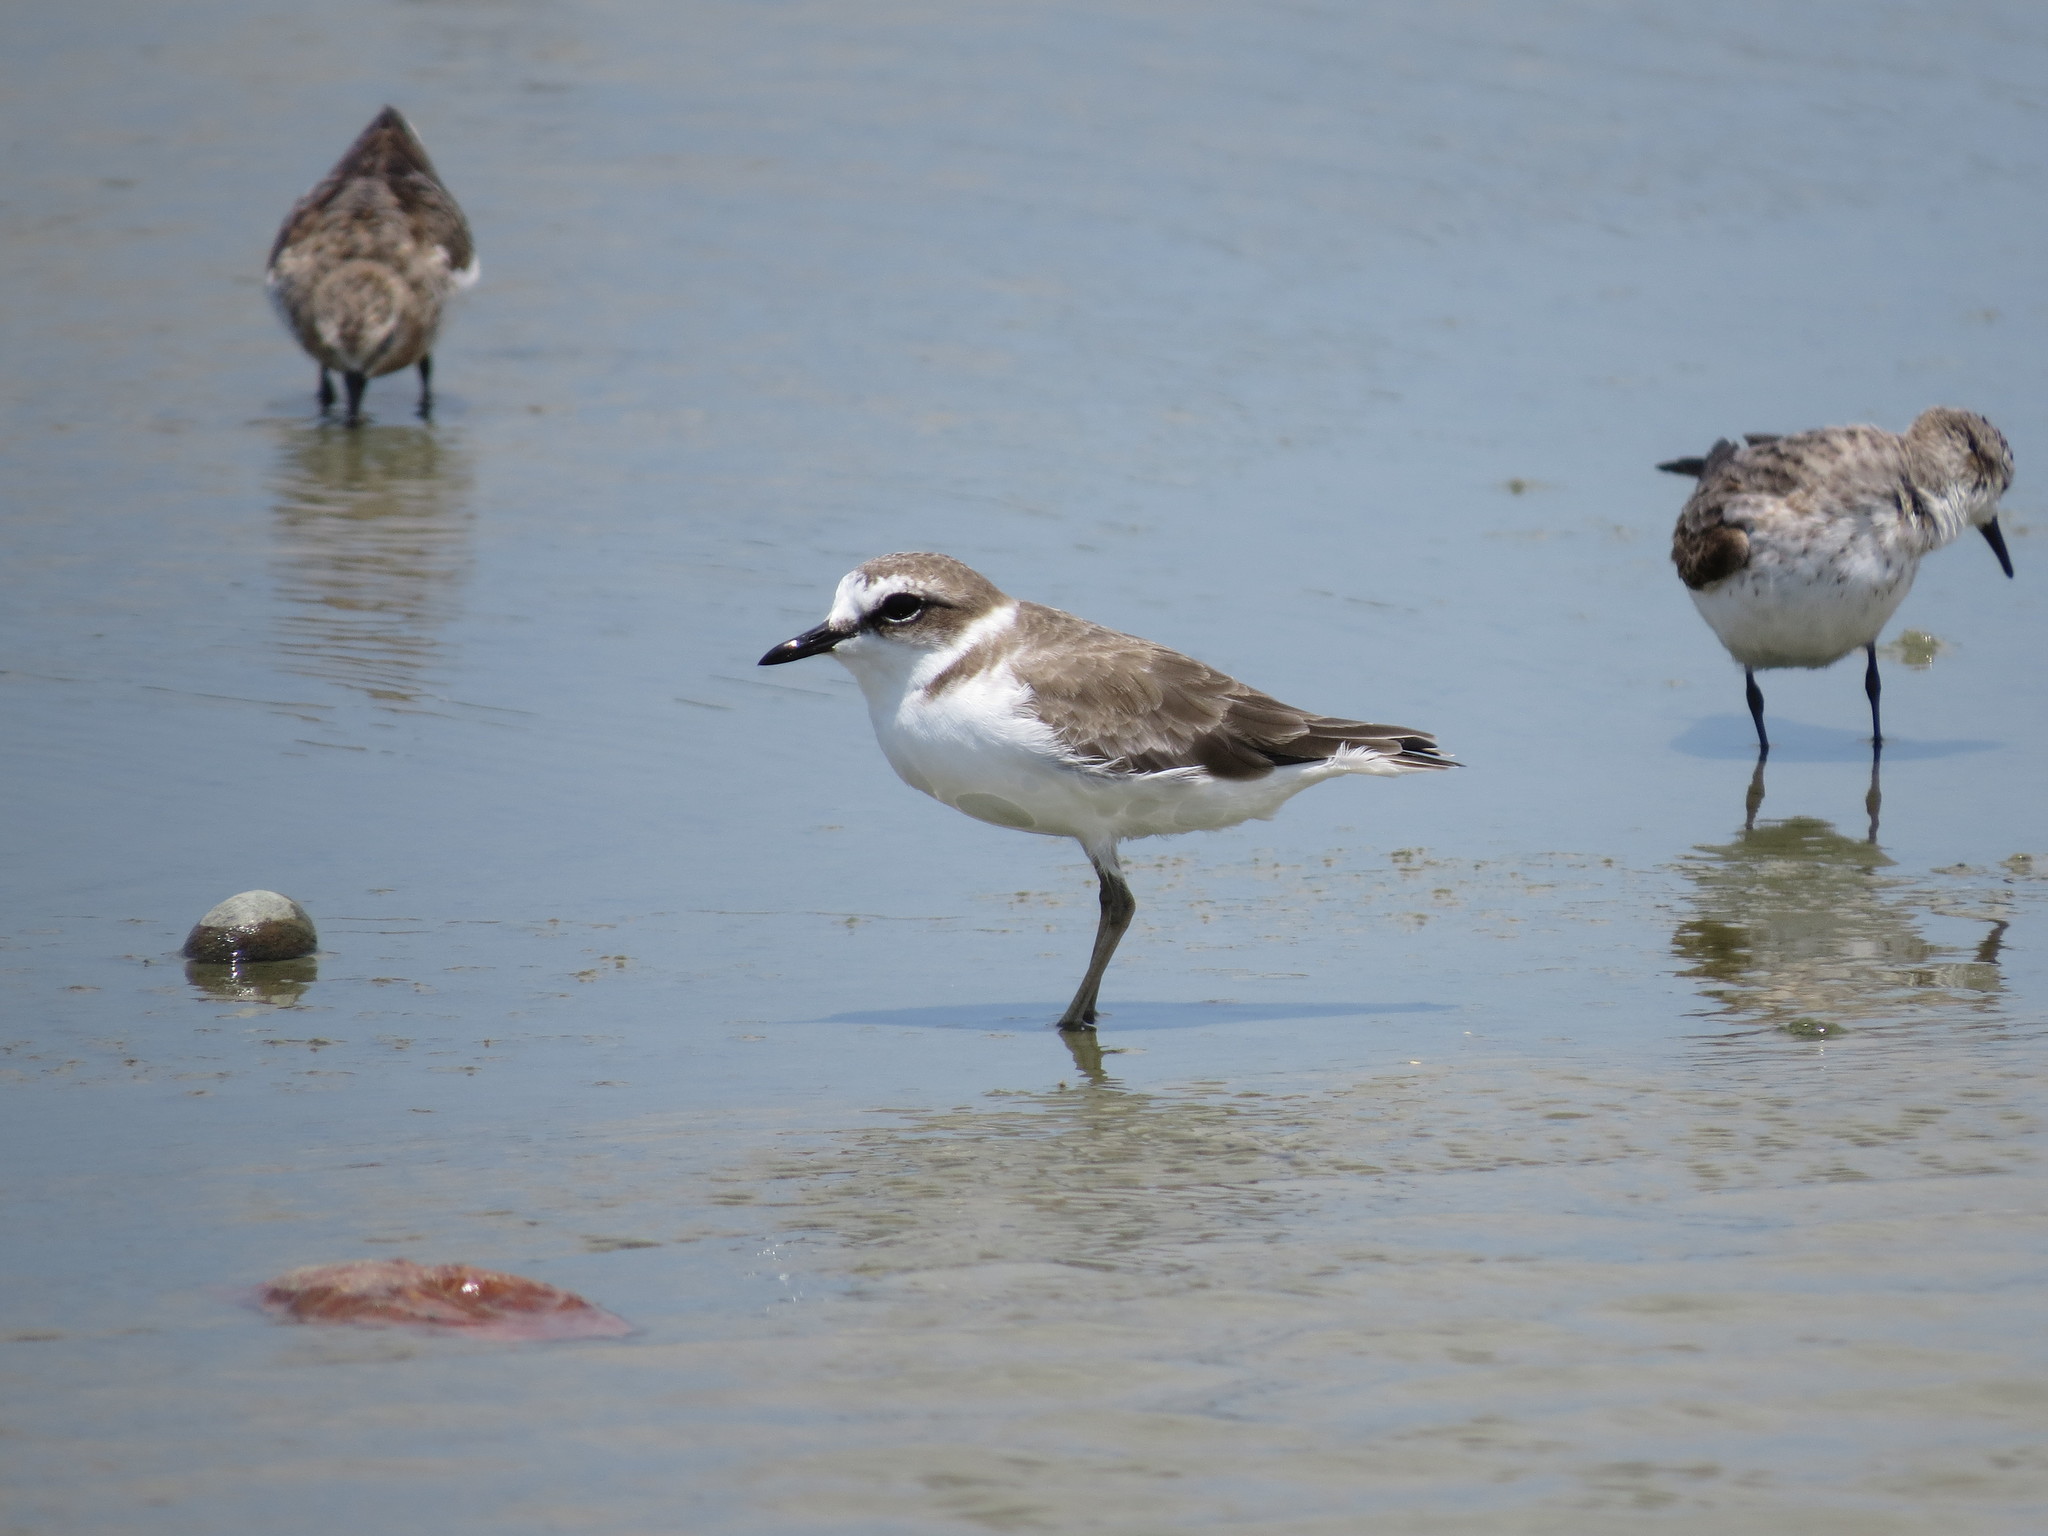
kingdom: Animalia
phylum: Chordata
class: Aves
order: Charadriiformes
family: Charadriidae
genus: Charadrius
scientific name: Charadrius alexandrinus
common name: Kentish plover
